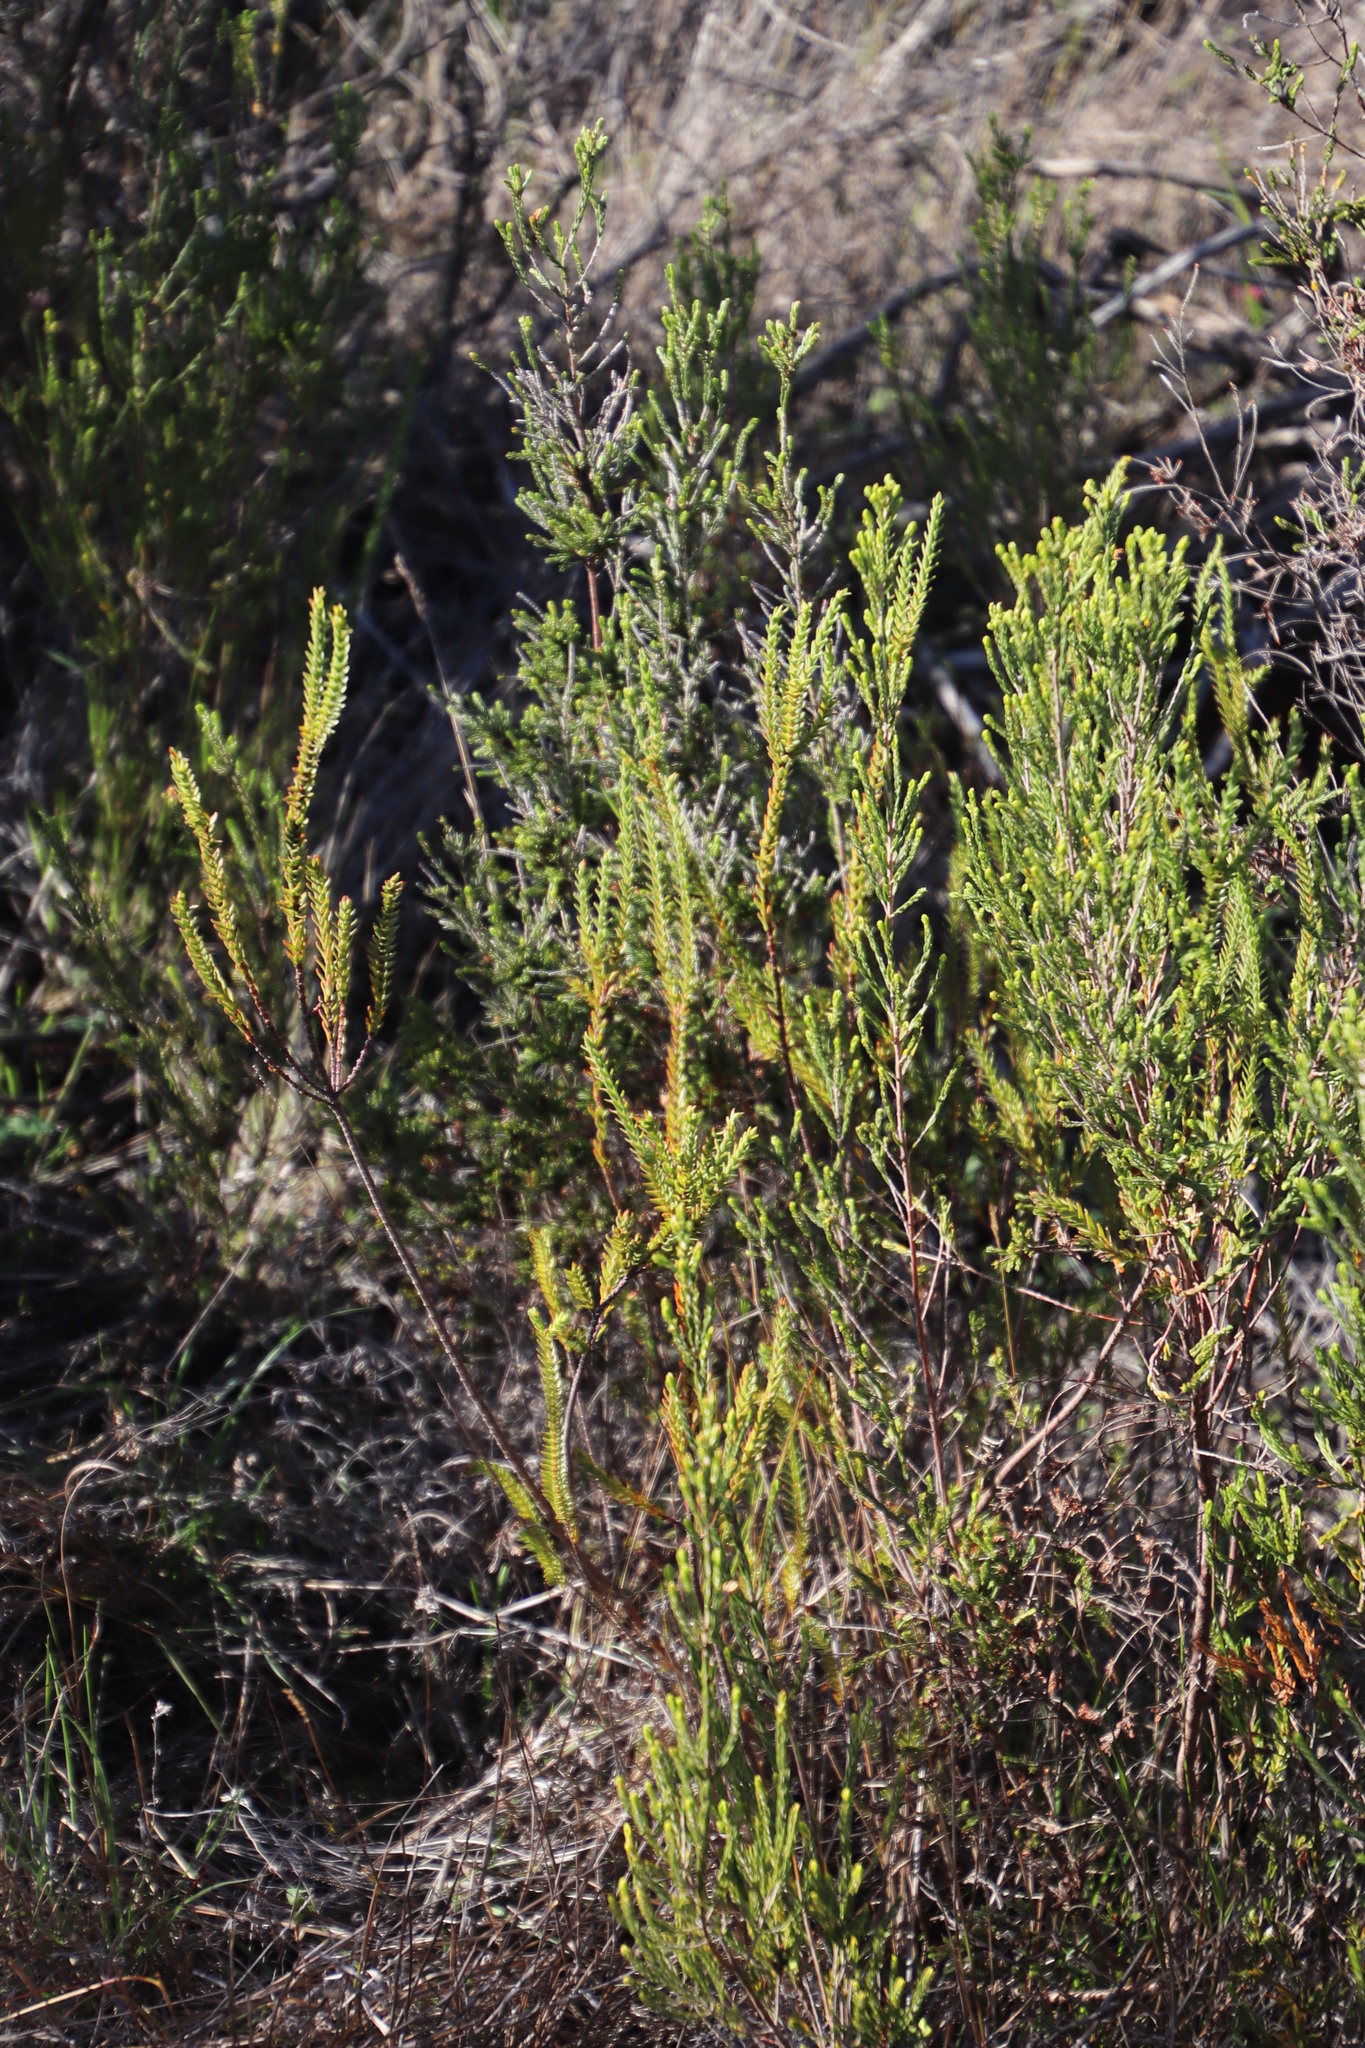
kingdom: Plantae
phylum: Tracheophyta
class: Magnoliopsida
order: Malvales
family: Thymelaeaceae
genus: Struthiola
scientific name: Struthiola striata
